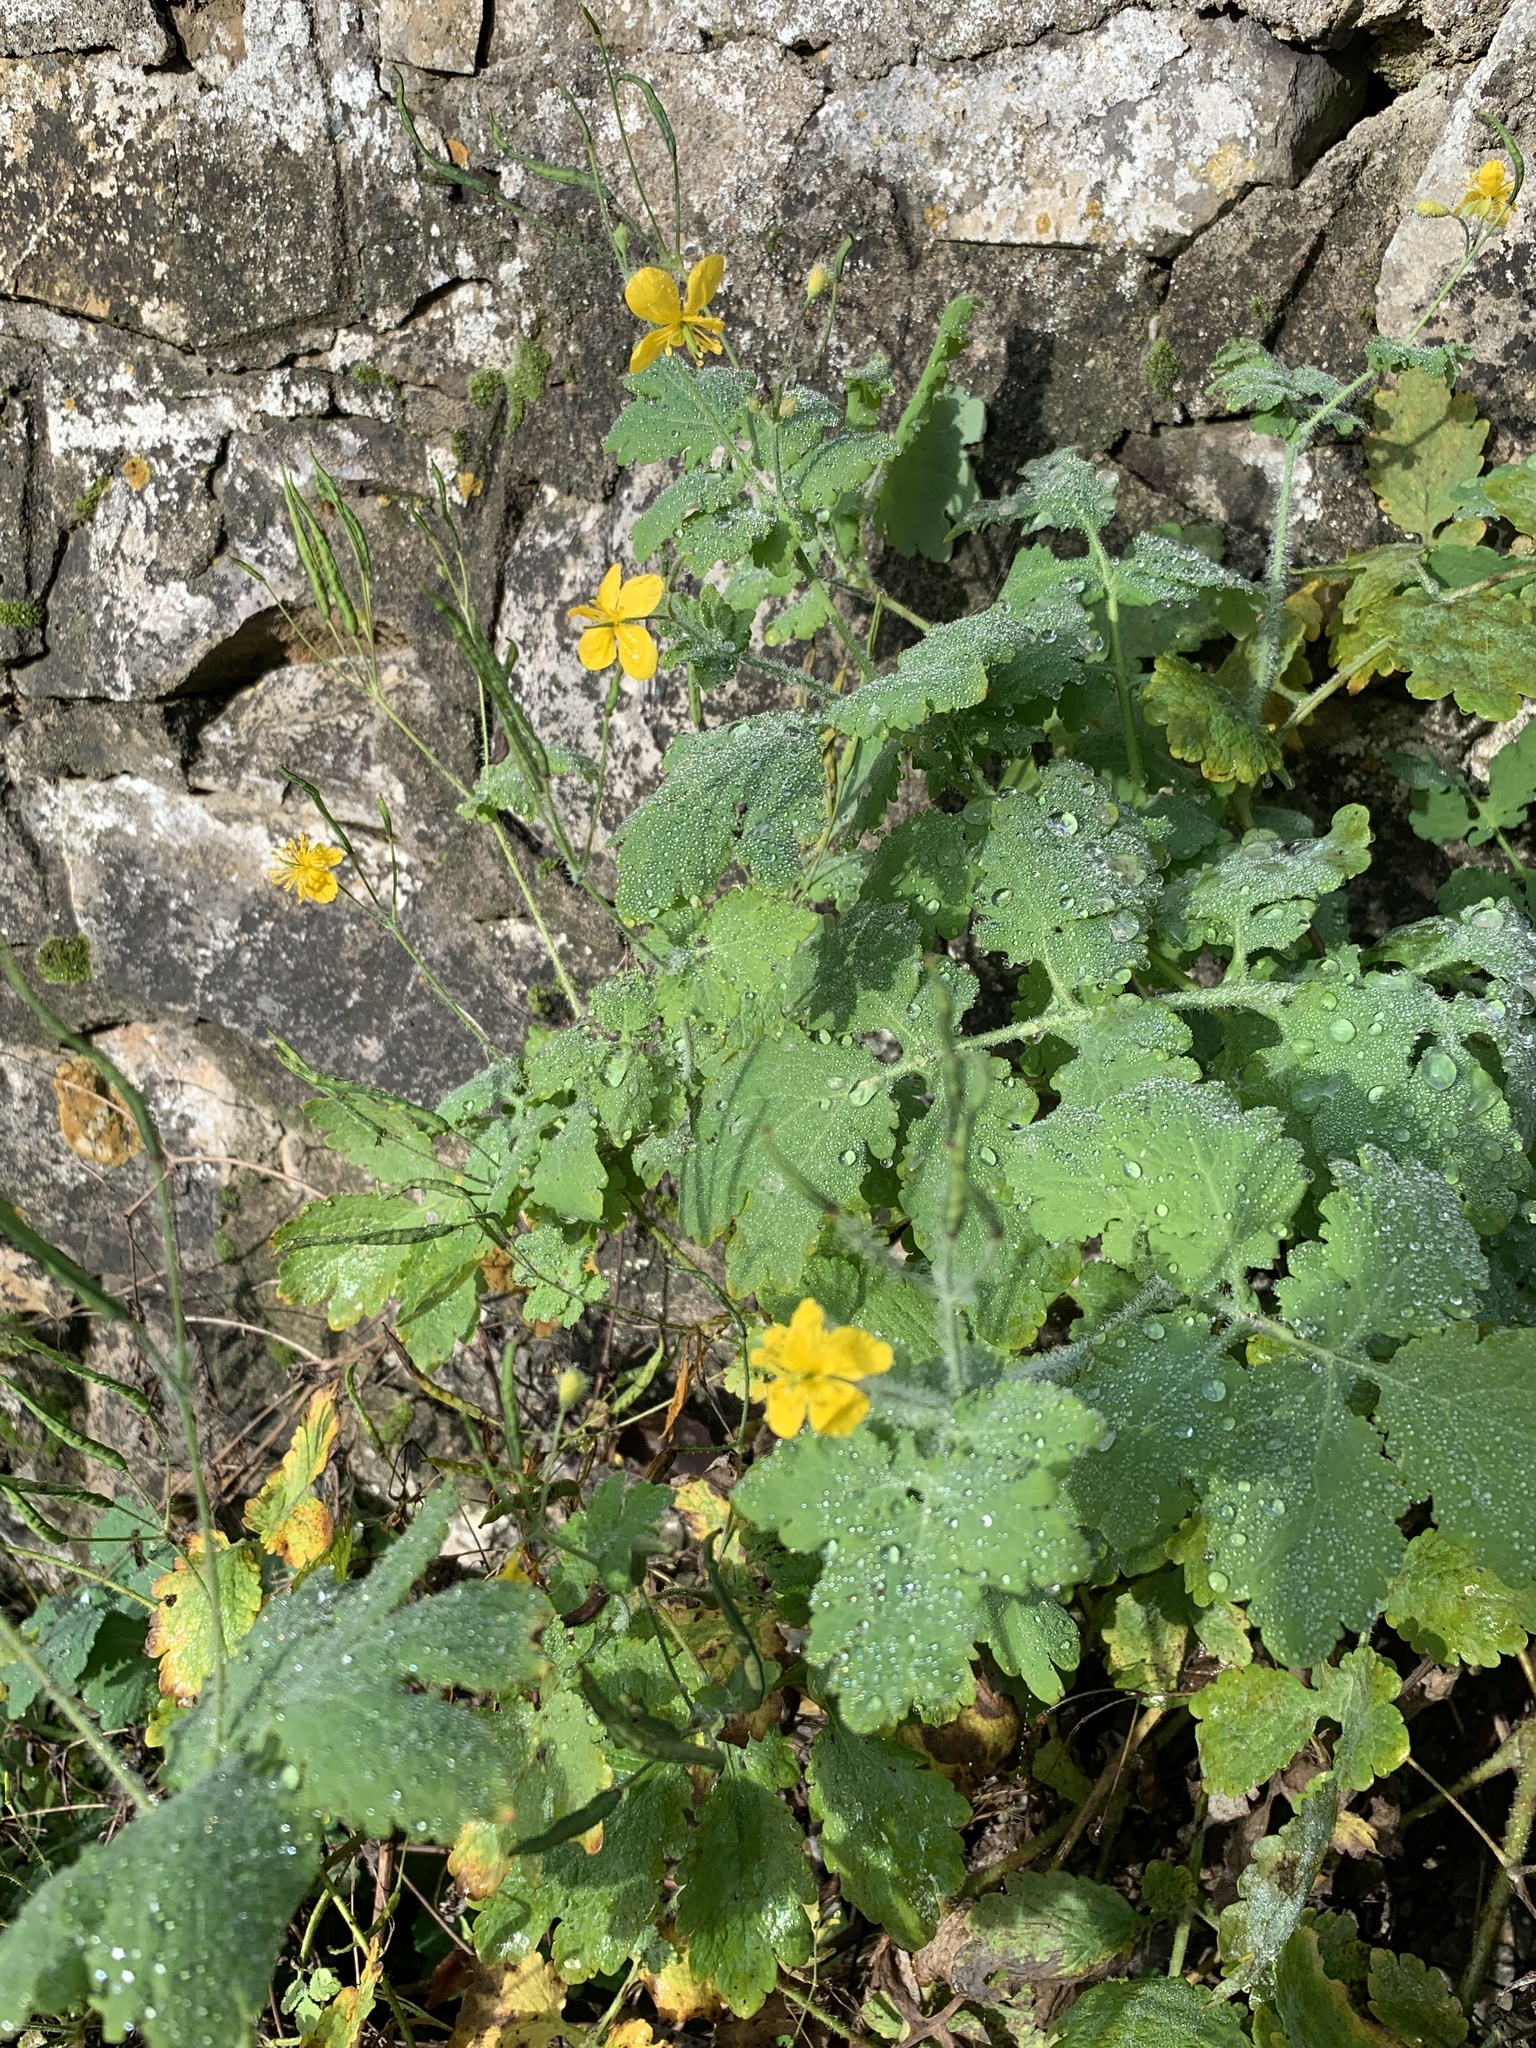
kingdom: Plantae
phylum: Tracheophyta
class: Magnoliopsida
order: Ranunculales
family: Papaveraceae
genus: Chelidonium
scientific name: Chelidonium majus
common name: Greater celandine
